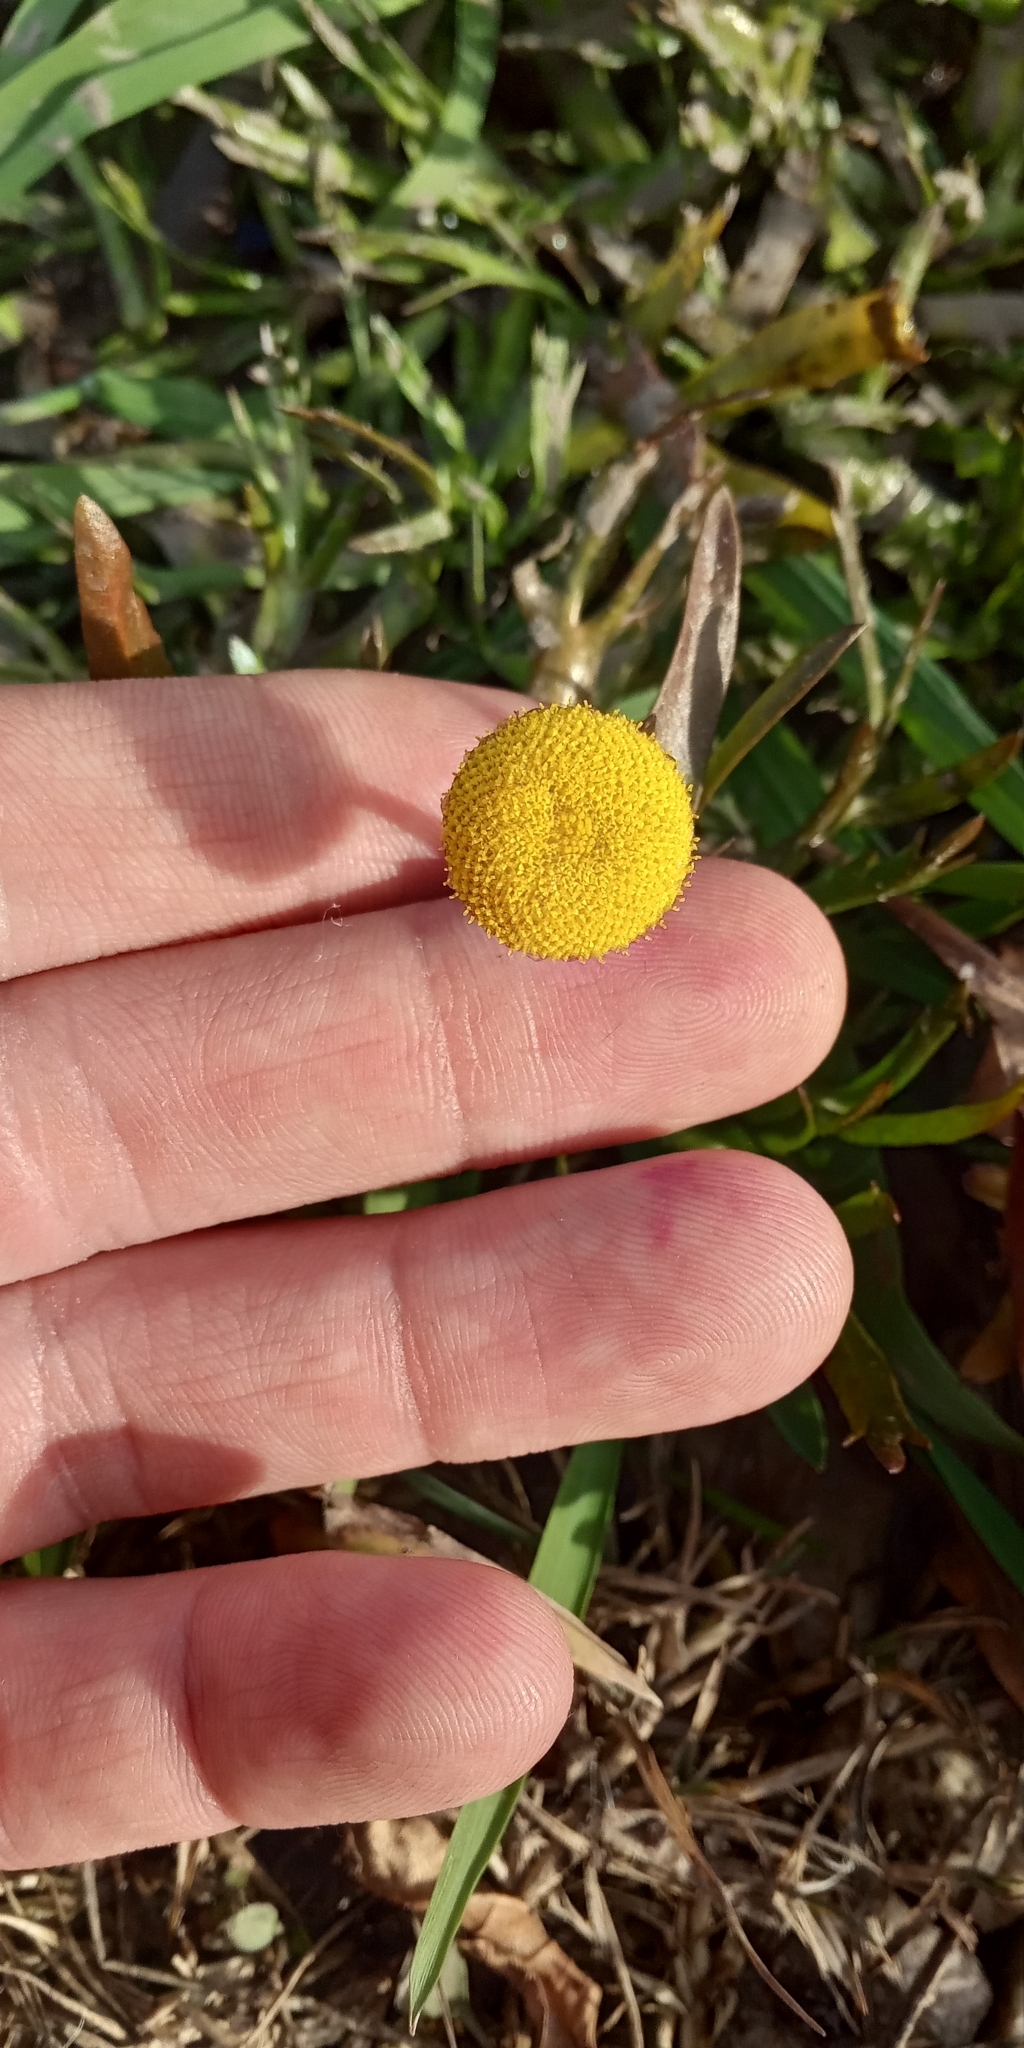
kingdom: Plantae
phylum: Tracheophyta
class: Magnoliopsida
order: Asterales
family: Asteraceae
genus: Cotula
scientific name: Cotula coronopifolia
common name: Buttonweed
